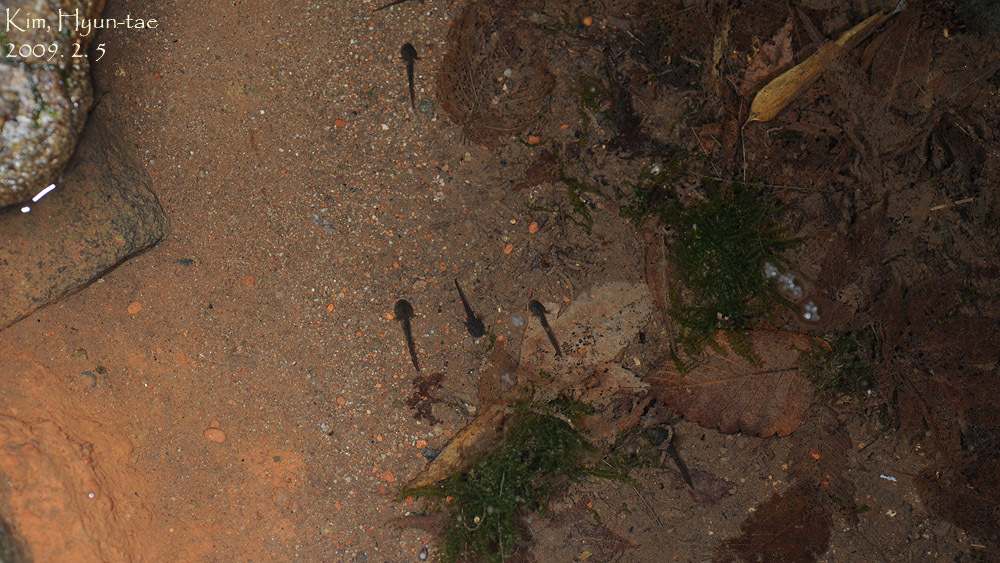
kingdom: Animalia
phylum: Chordata
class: Amphibia
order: Caudata
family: Hynobiidae
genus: Hynobius
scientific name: Hynobius leechii
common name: Gensan salamander
